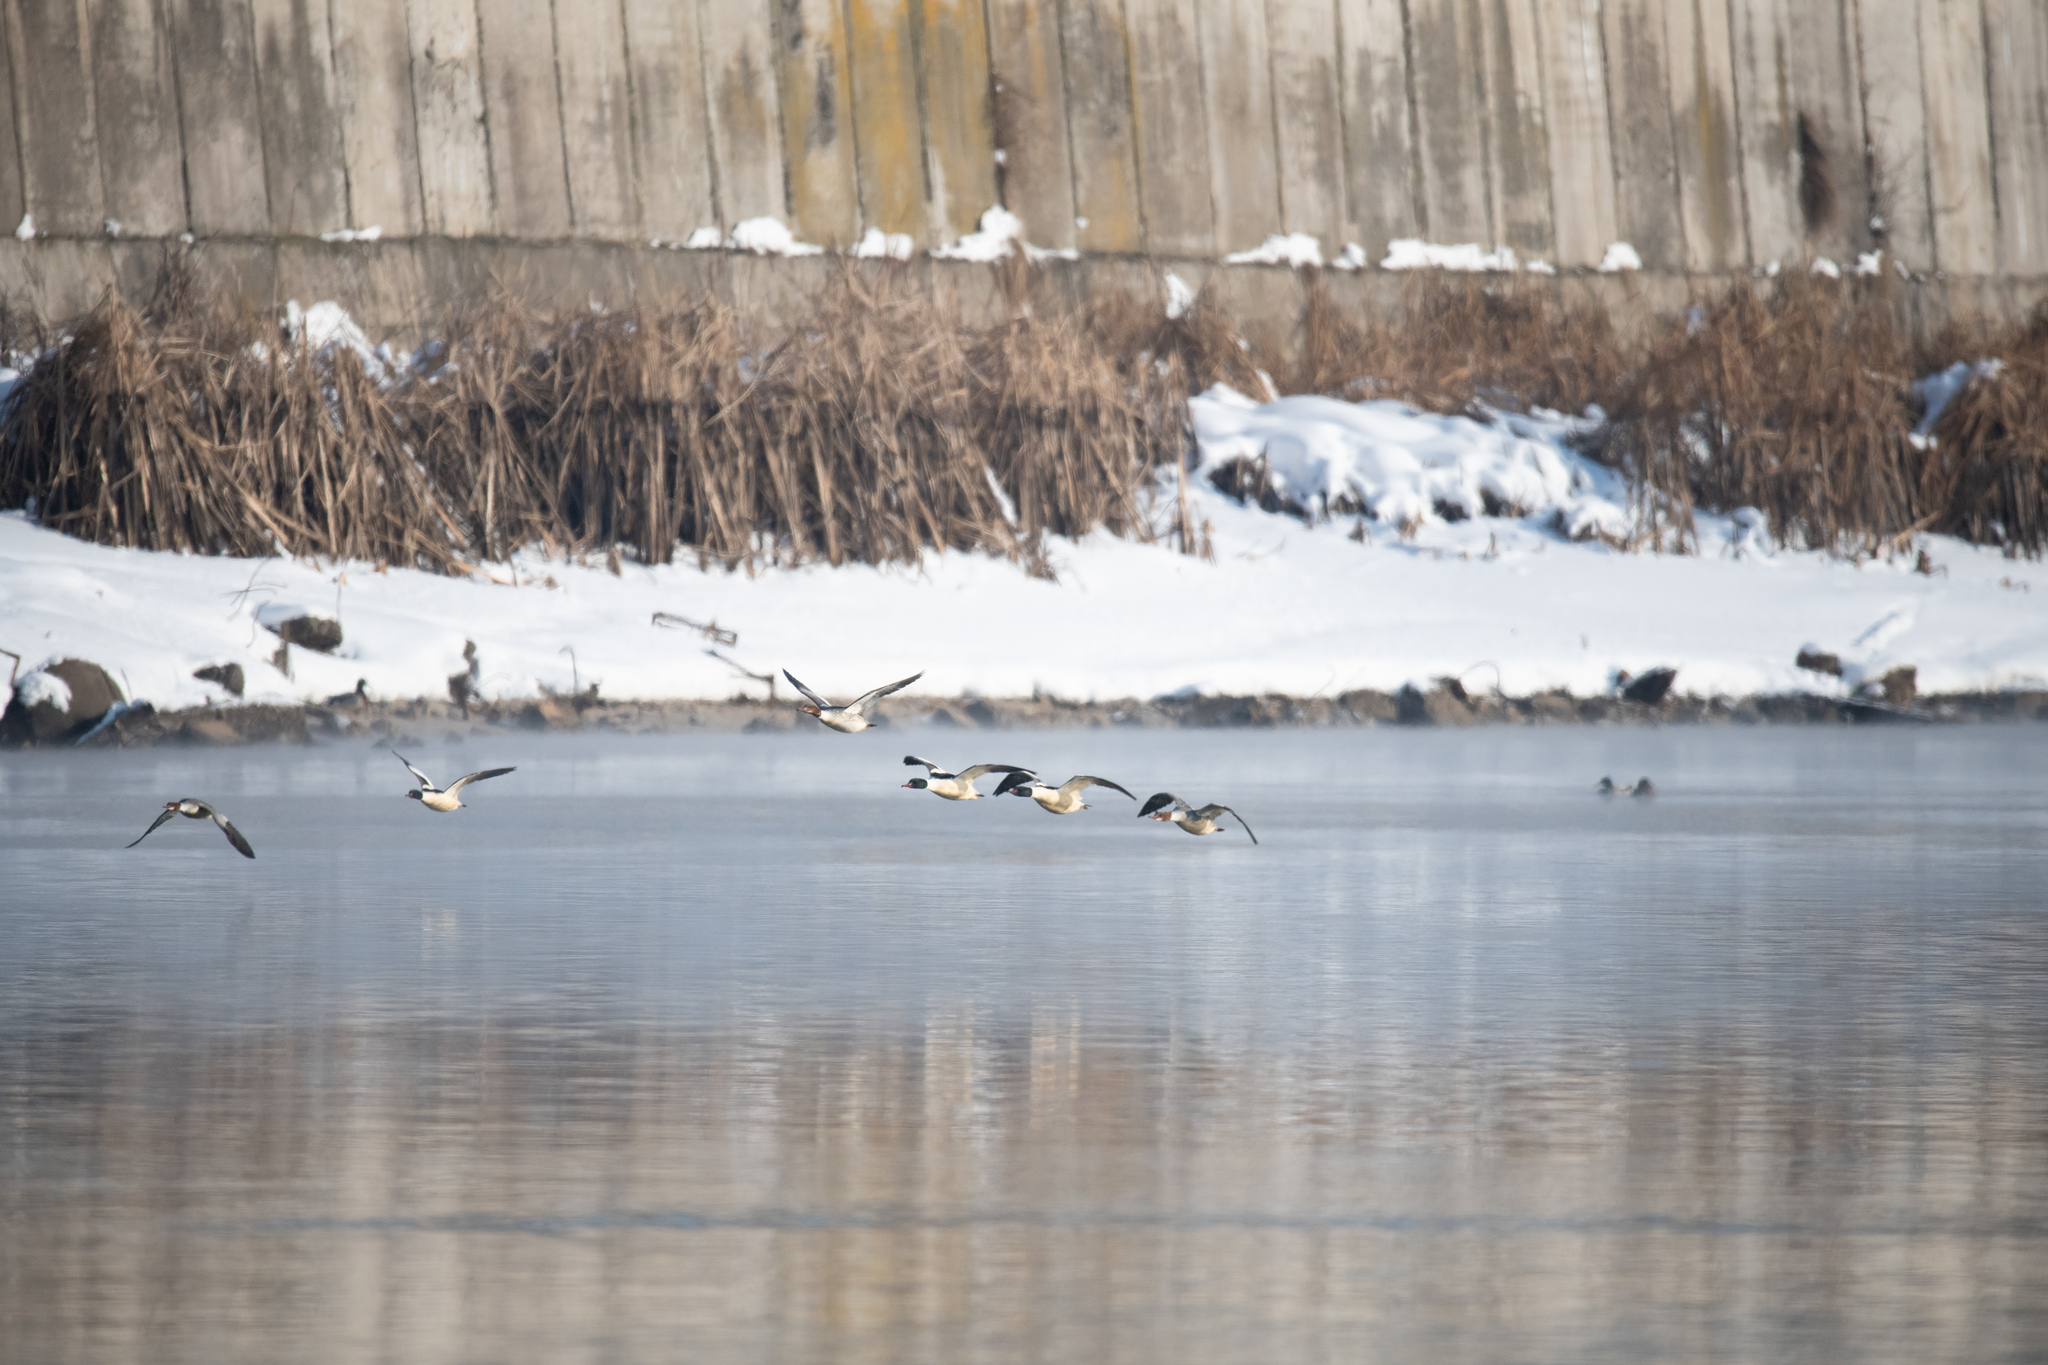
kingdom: Animalia
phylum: Chordata
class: Aves
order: Anseriformes
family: Anatidae
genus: Mergus
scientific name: Mergus merganser
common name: Common merganser
